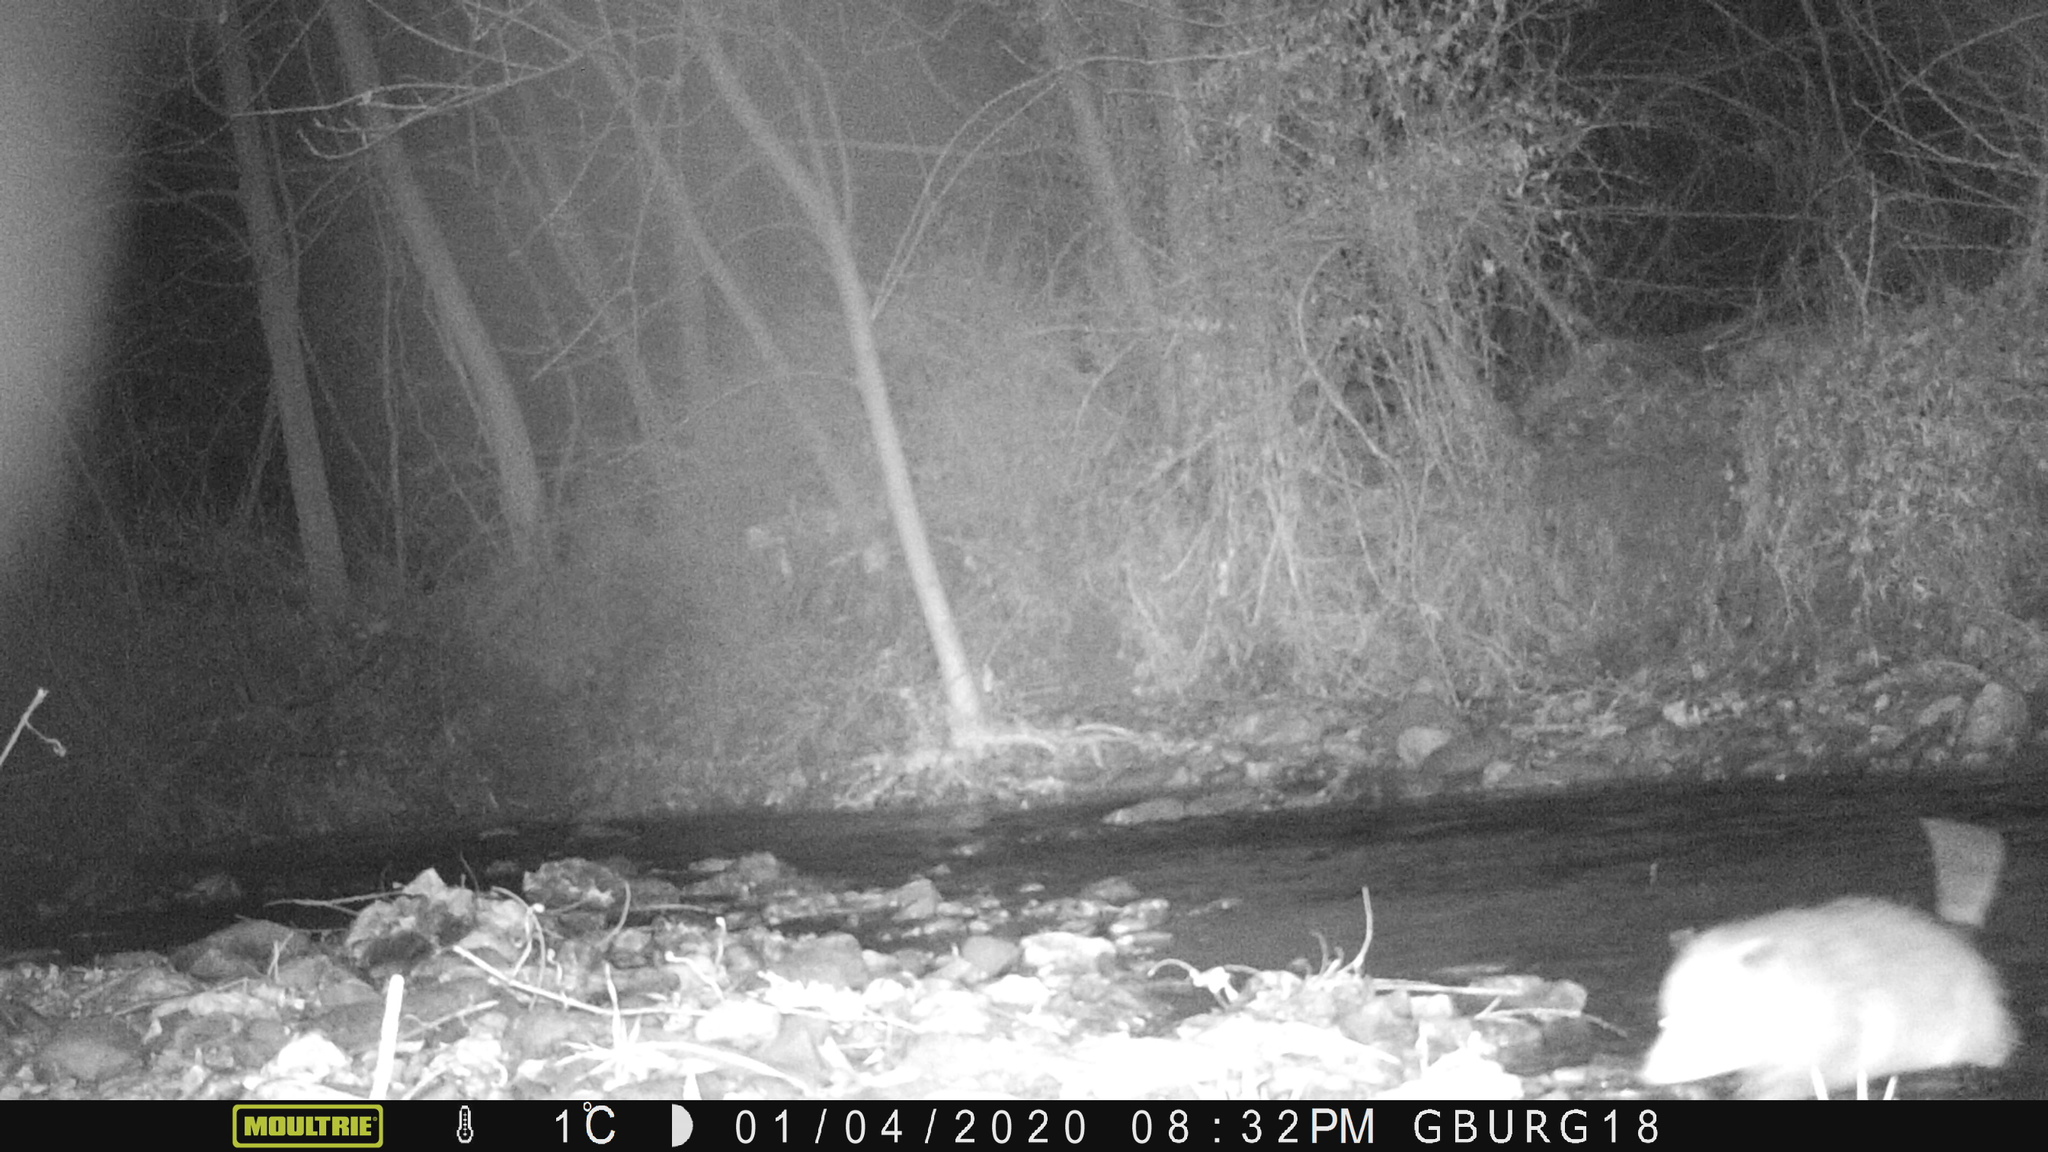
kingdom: Animalia
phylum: Chordata
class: Mammalia
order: Didelphimorphia
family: Didelphidae
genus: Didelphis
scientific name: Didelphis virginiana
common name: Virginia opossum
